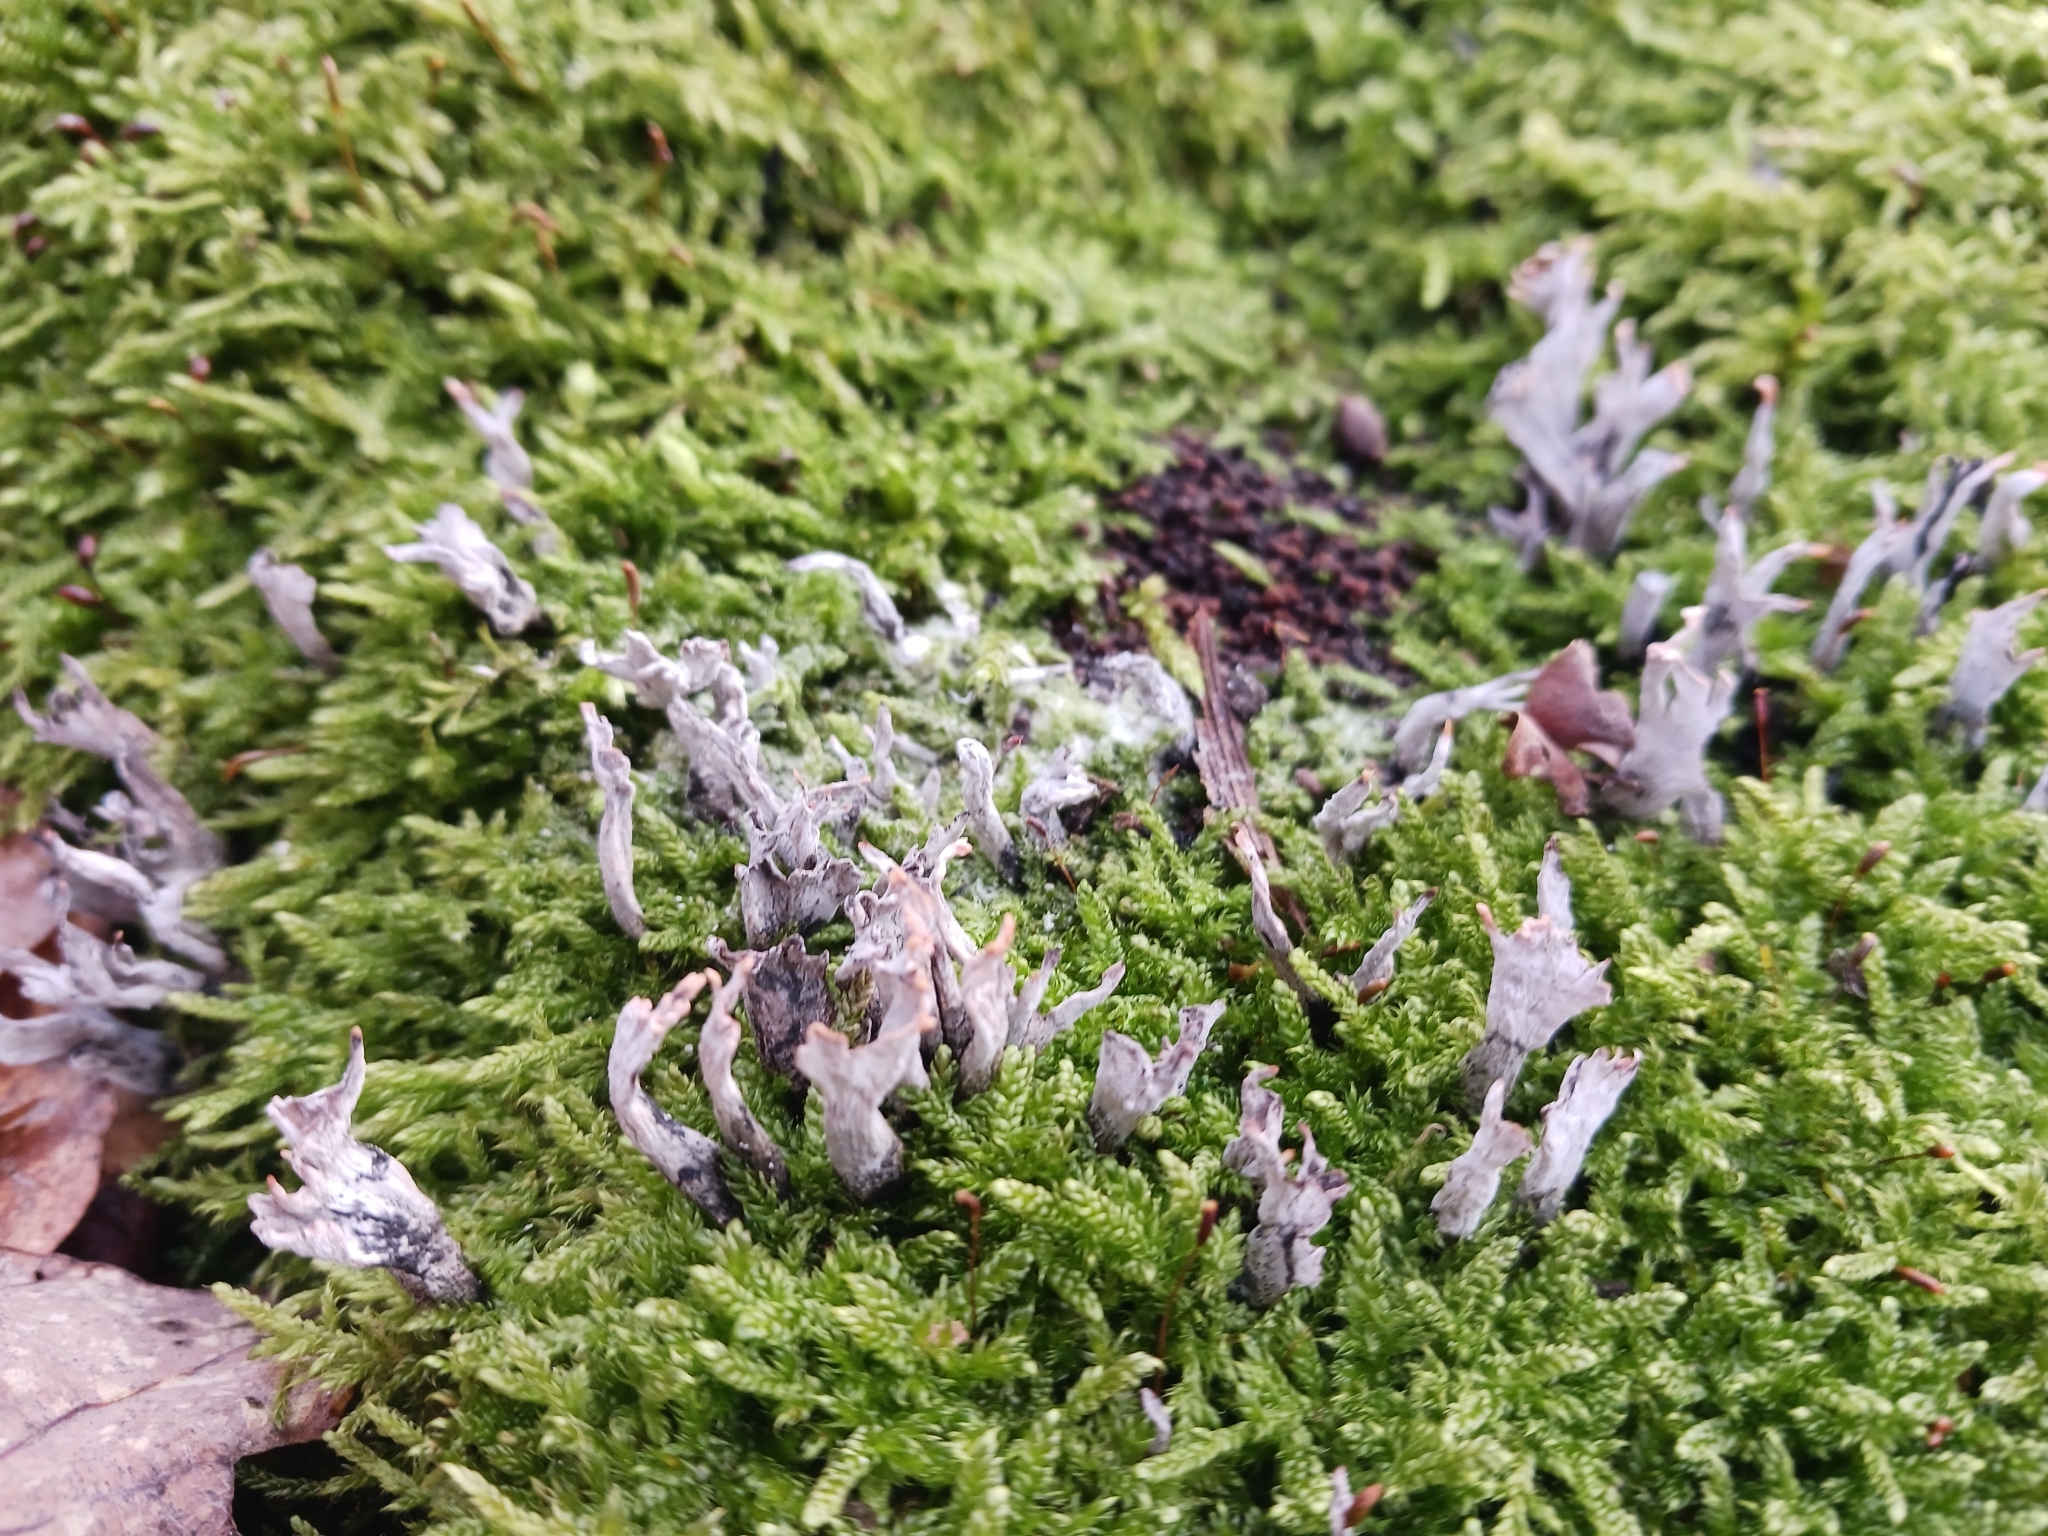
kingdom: Fungi
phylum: Ascomycota
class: Sordariomycetes
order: Xylariales
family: Xylariaceae
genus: Xylaria
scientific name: Xylaria hypoxylon
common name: Candle-snuff fungus
